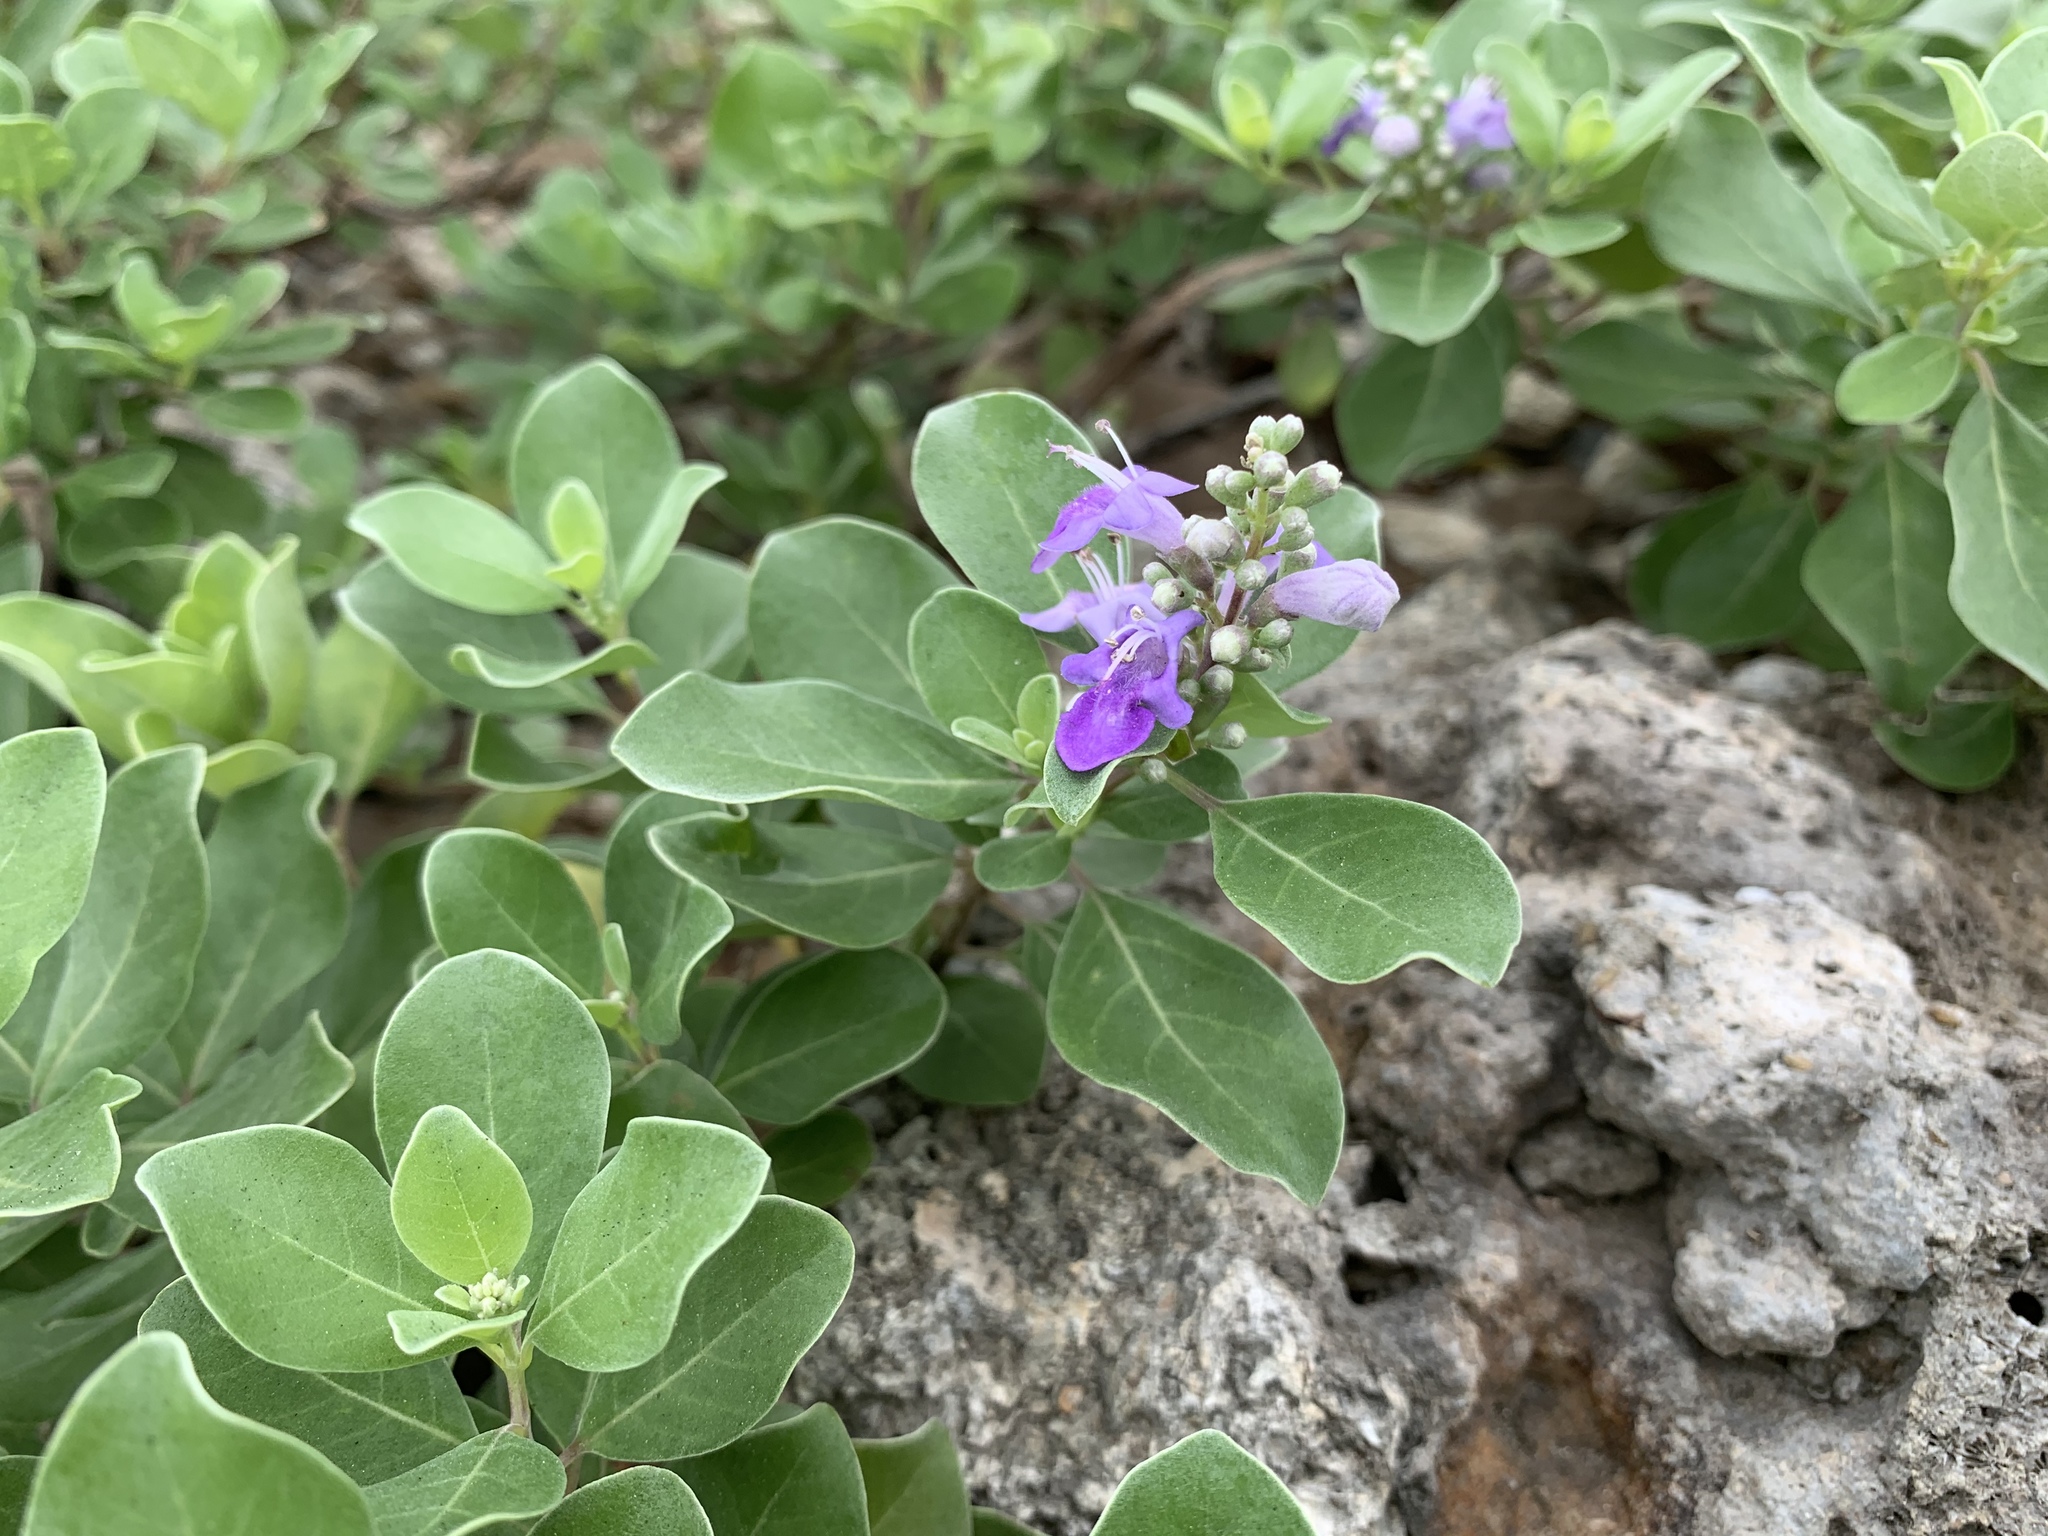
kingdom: Plantae
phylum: Tracheophyta
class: Magnoliopsida
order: Lamiales
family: Lamiaceae
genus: Vitex
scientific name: Vitex rotundifolia
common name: Beach vitex
